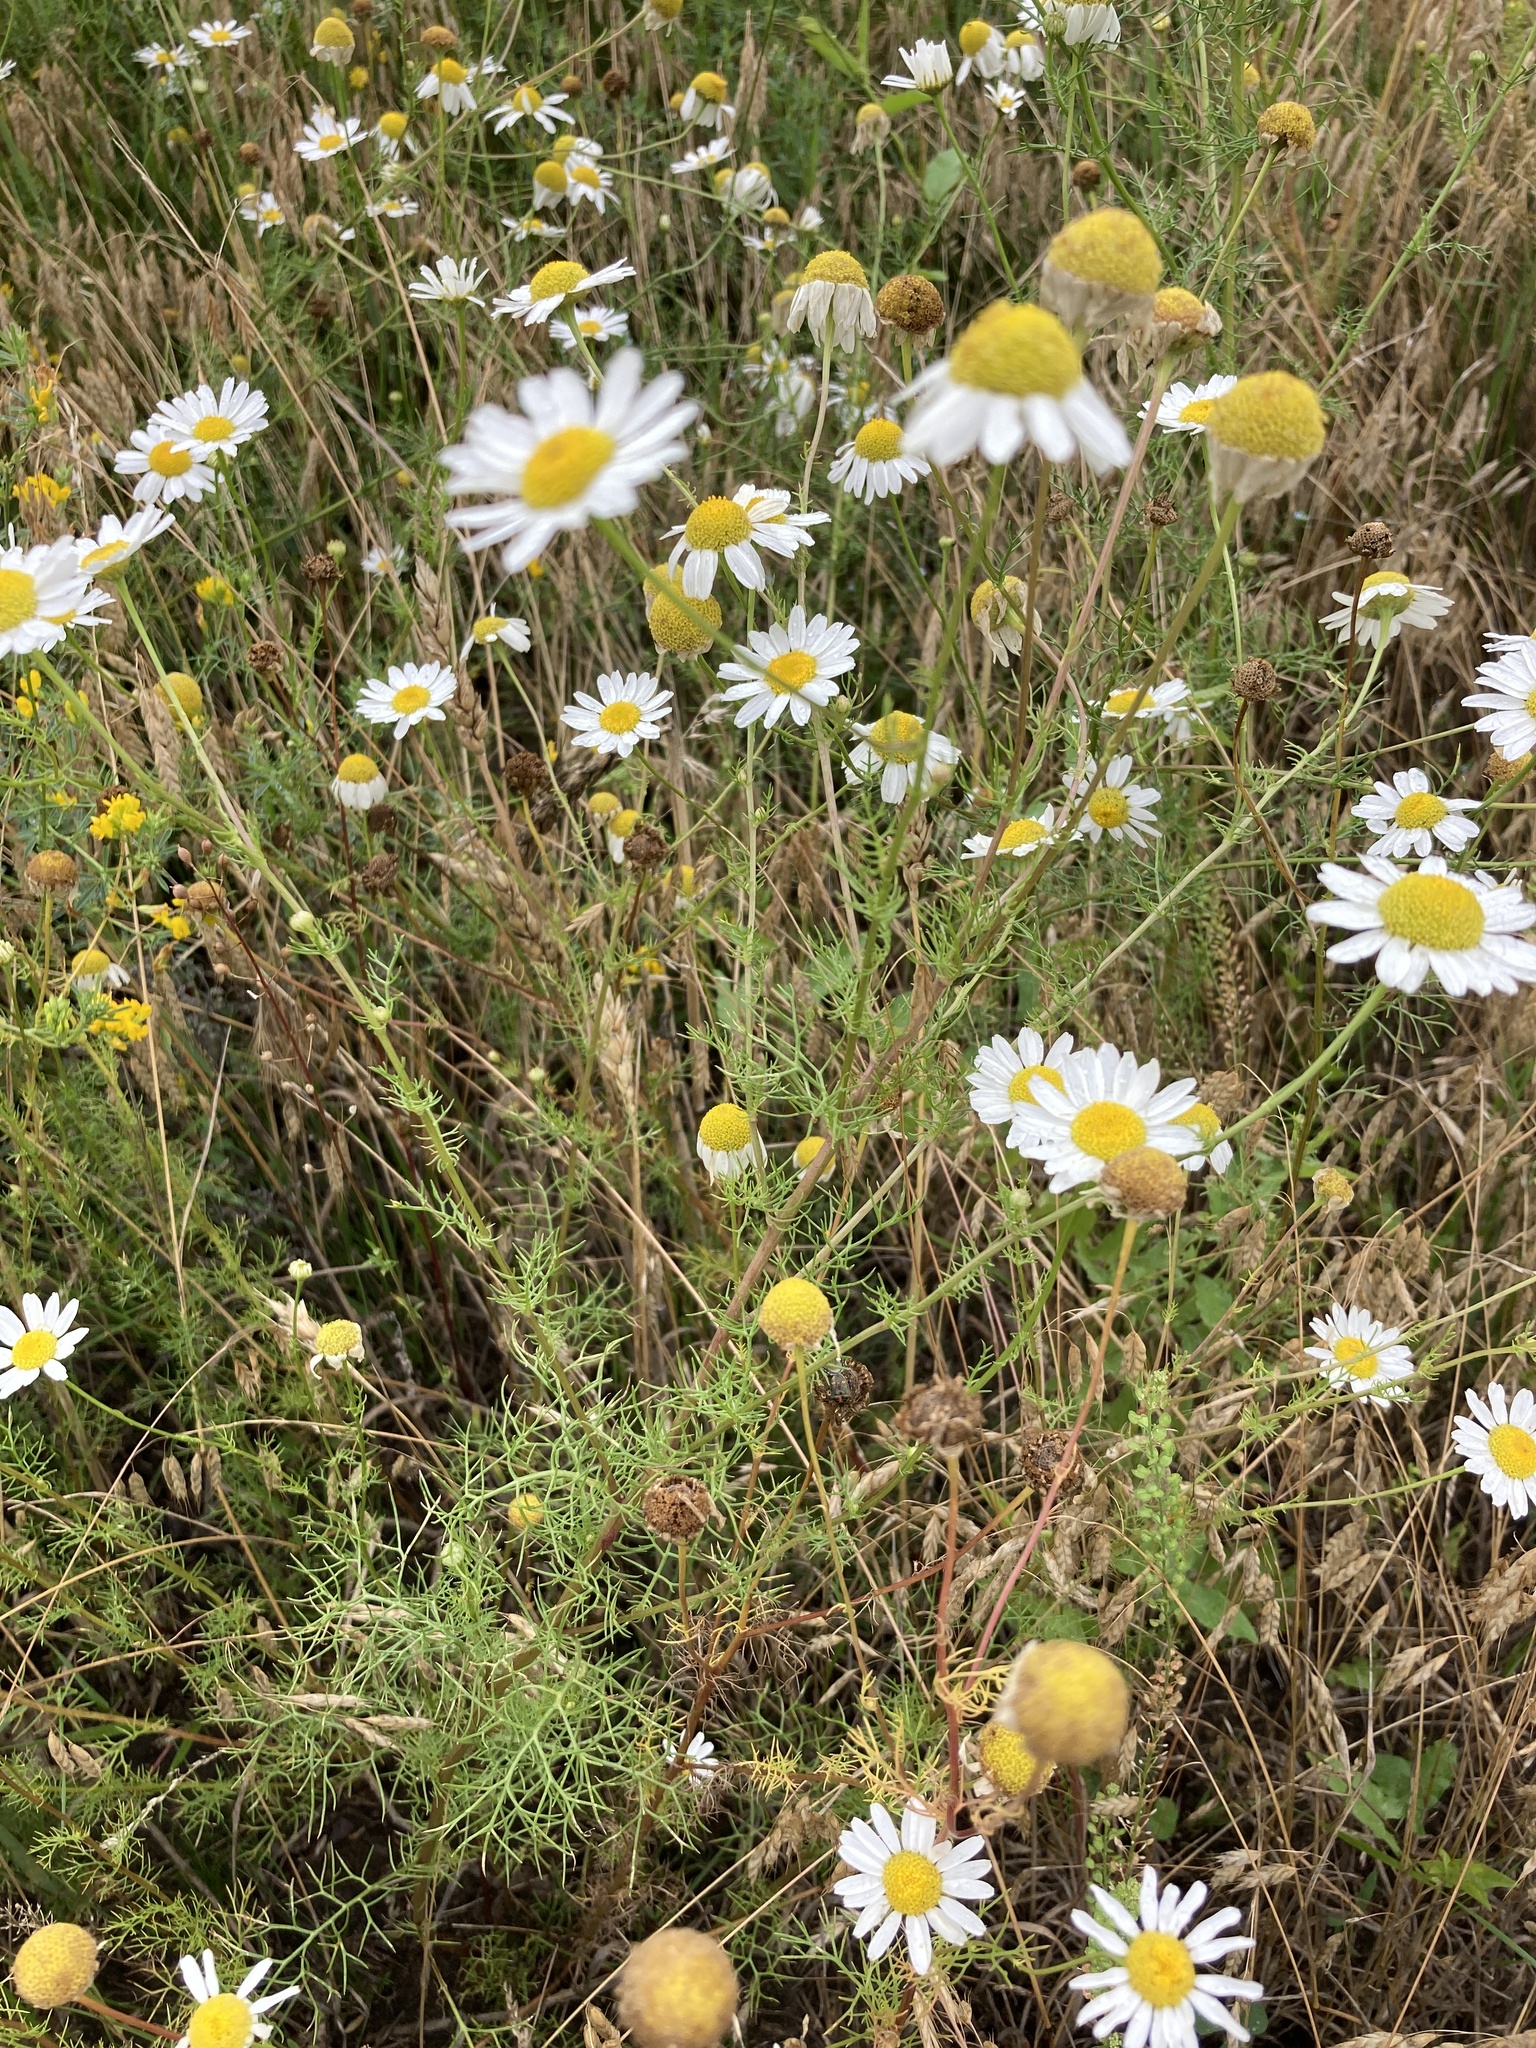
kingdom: Plantae
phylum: Tracheophyta
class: Magnoliopsida
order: Asterales
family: Asteraceae
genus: Tripleurospermum
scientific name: Tripleurospermum inodorum
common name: Scentless mayweed
